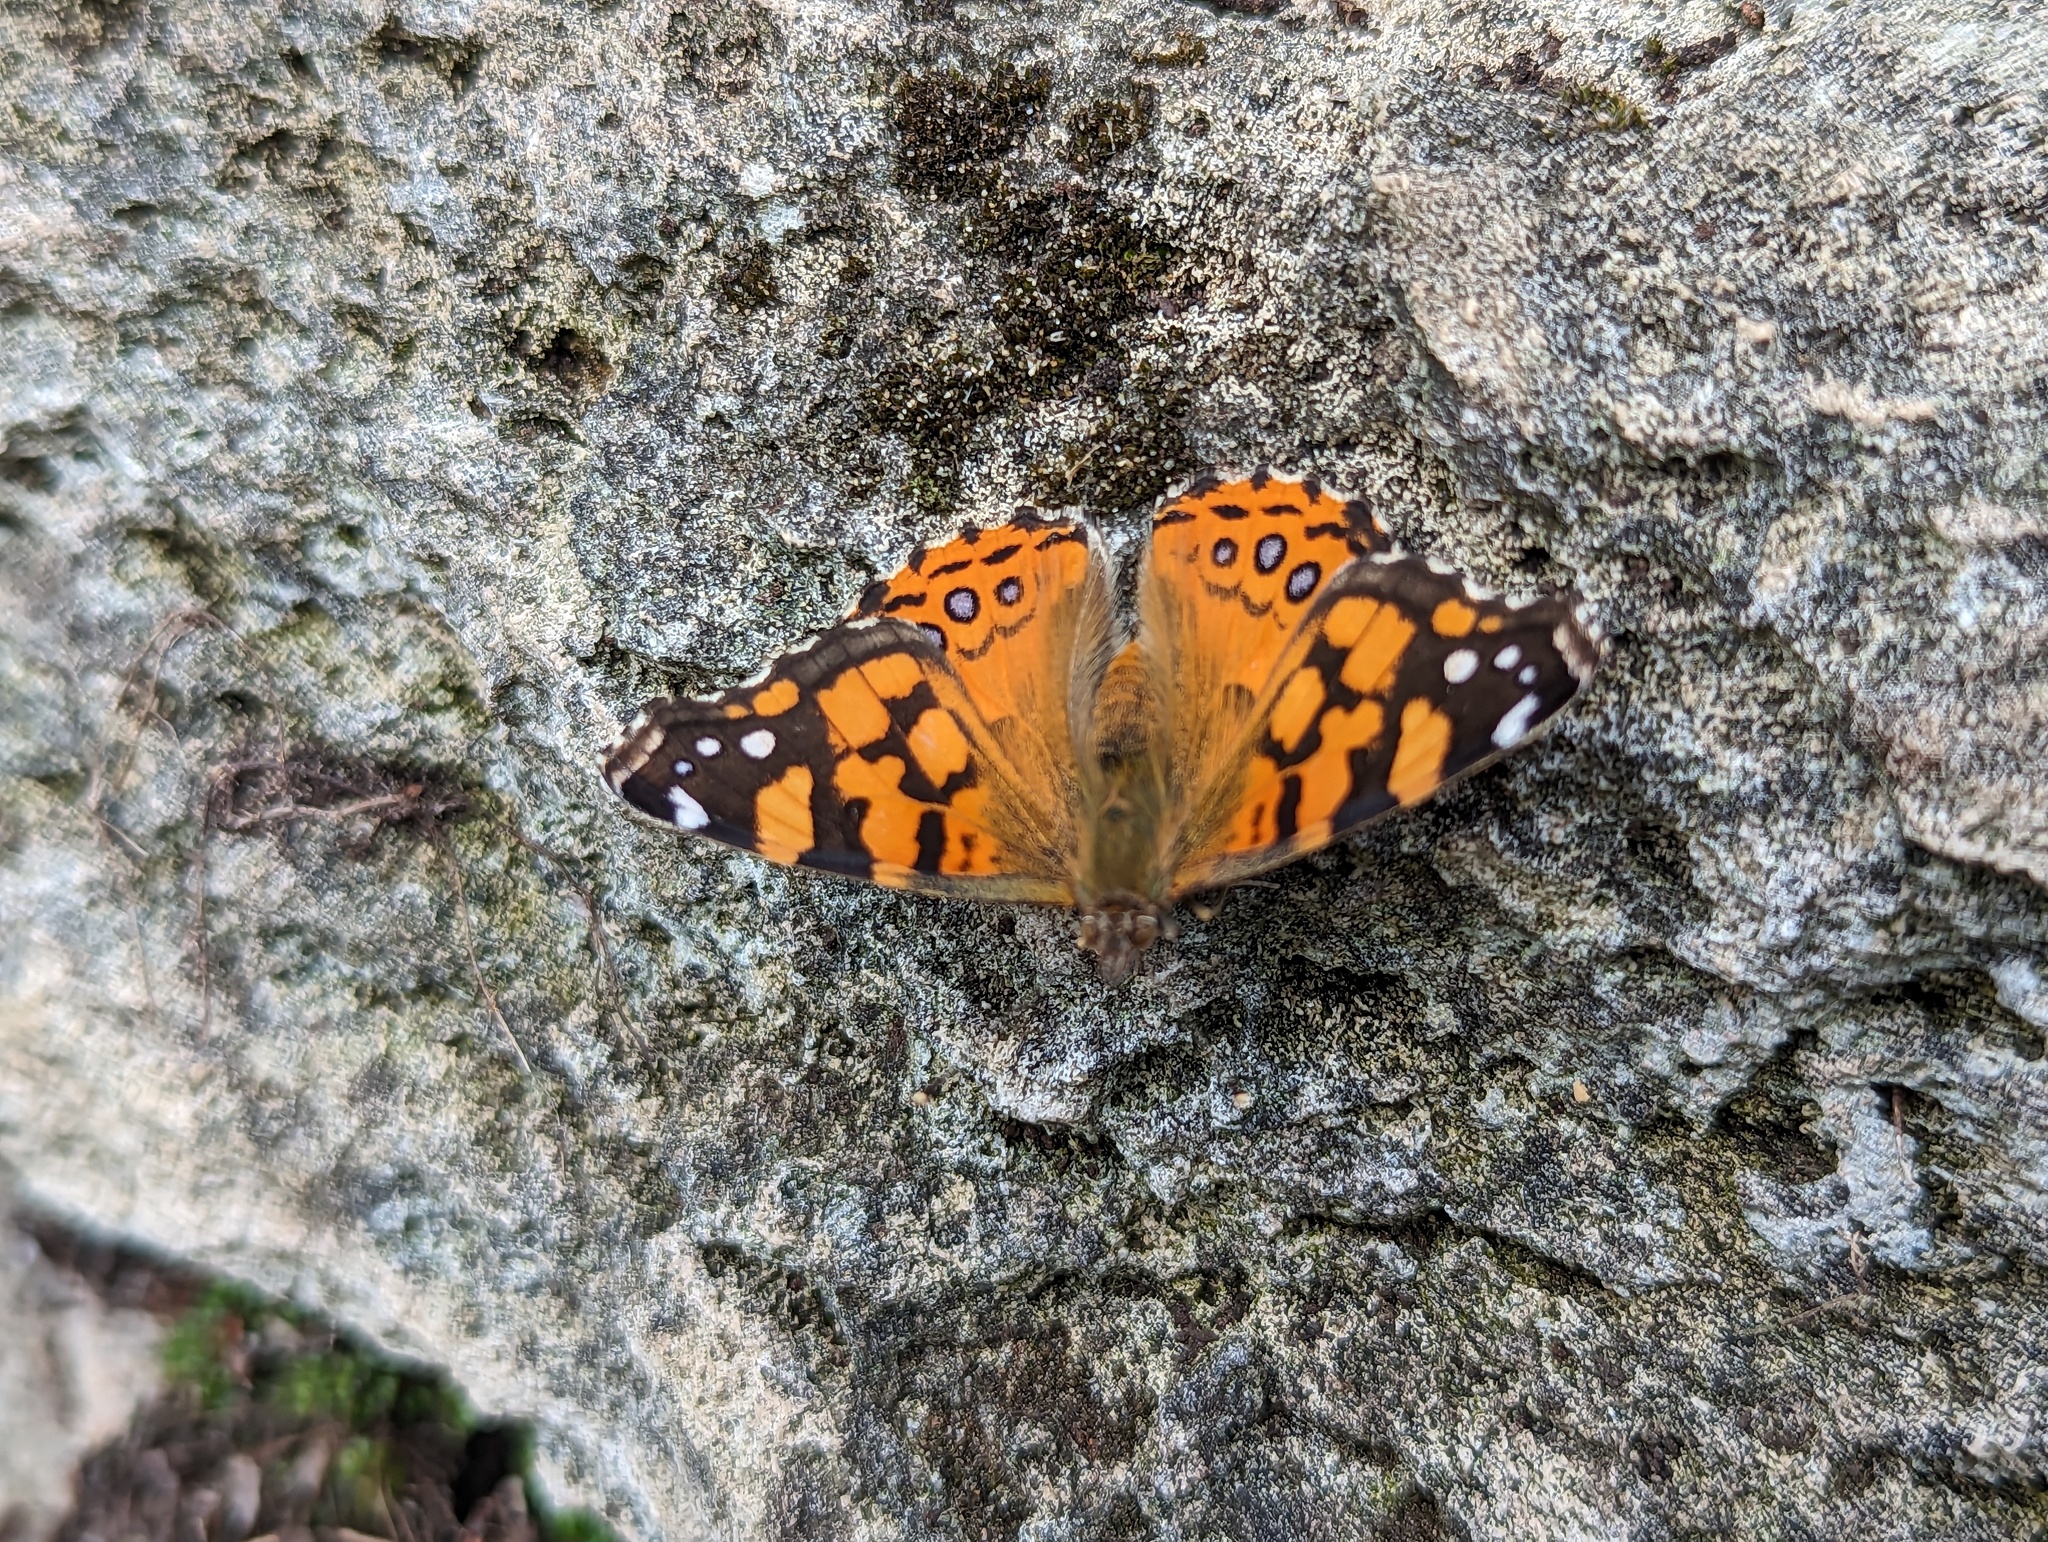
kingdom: Animalia
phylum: Arthropoda
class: Insecta
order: Lepidoptera
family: Nymphalidae
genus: Vanessa
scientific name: Vanessa annabella
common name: West coast lady
